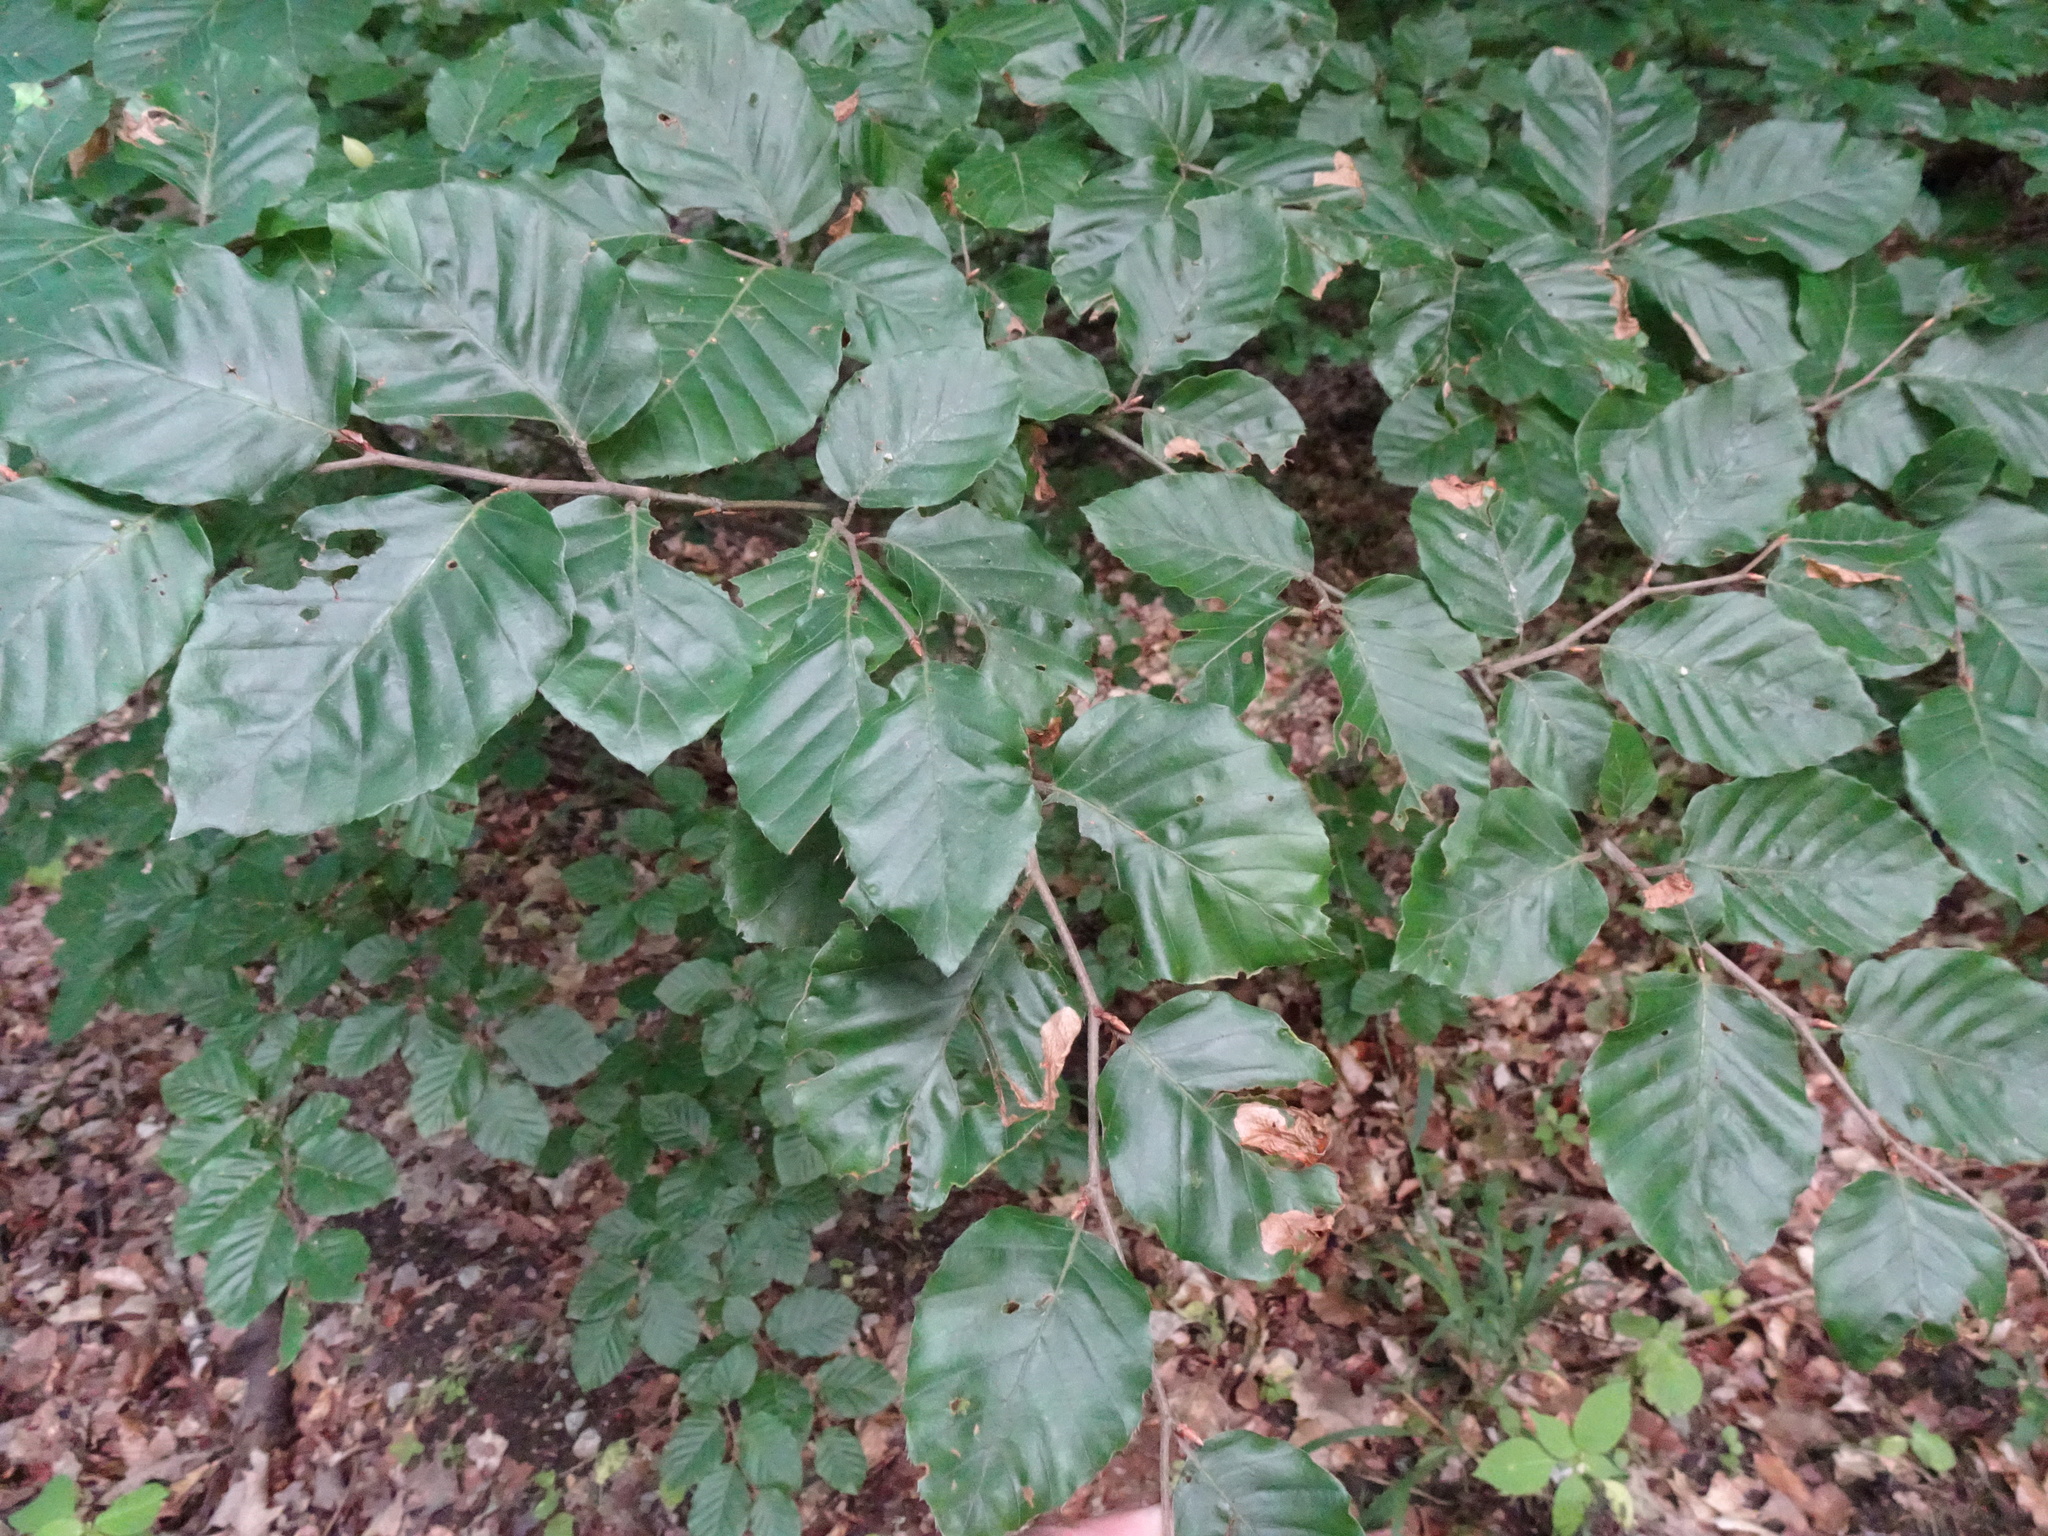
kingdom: Plantae
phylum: Tracheophyta
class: Magnoliopsida
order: Fagales
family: Fagaceae
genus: Fagus
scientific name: Fagus sylvatica
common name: Beech
